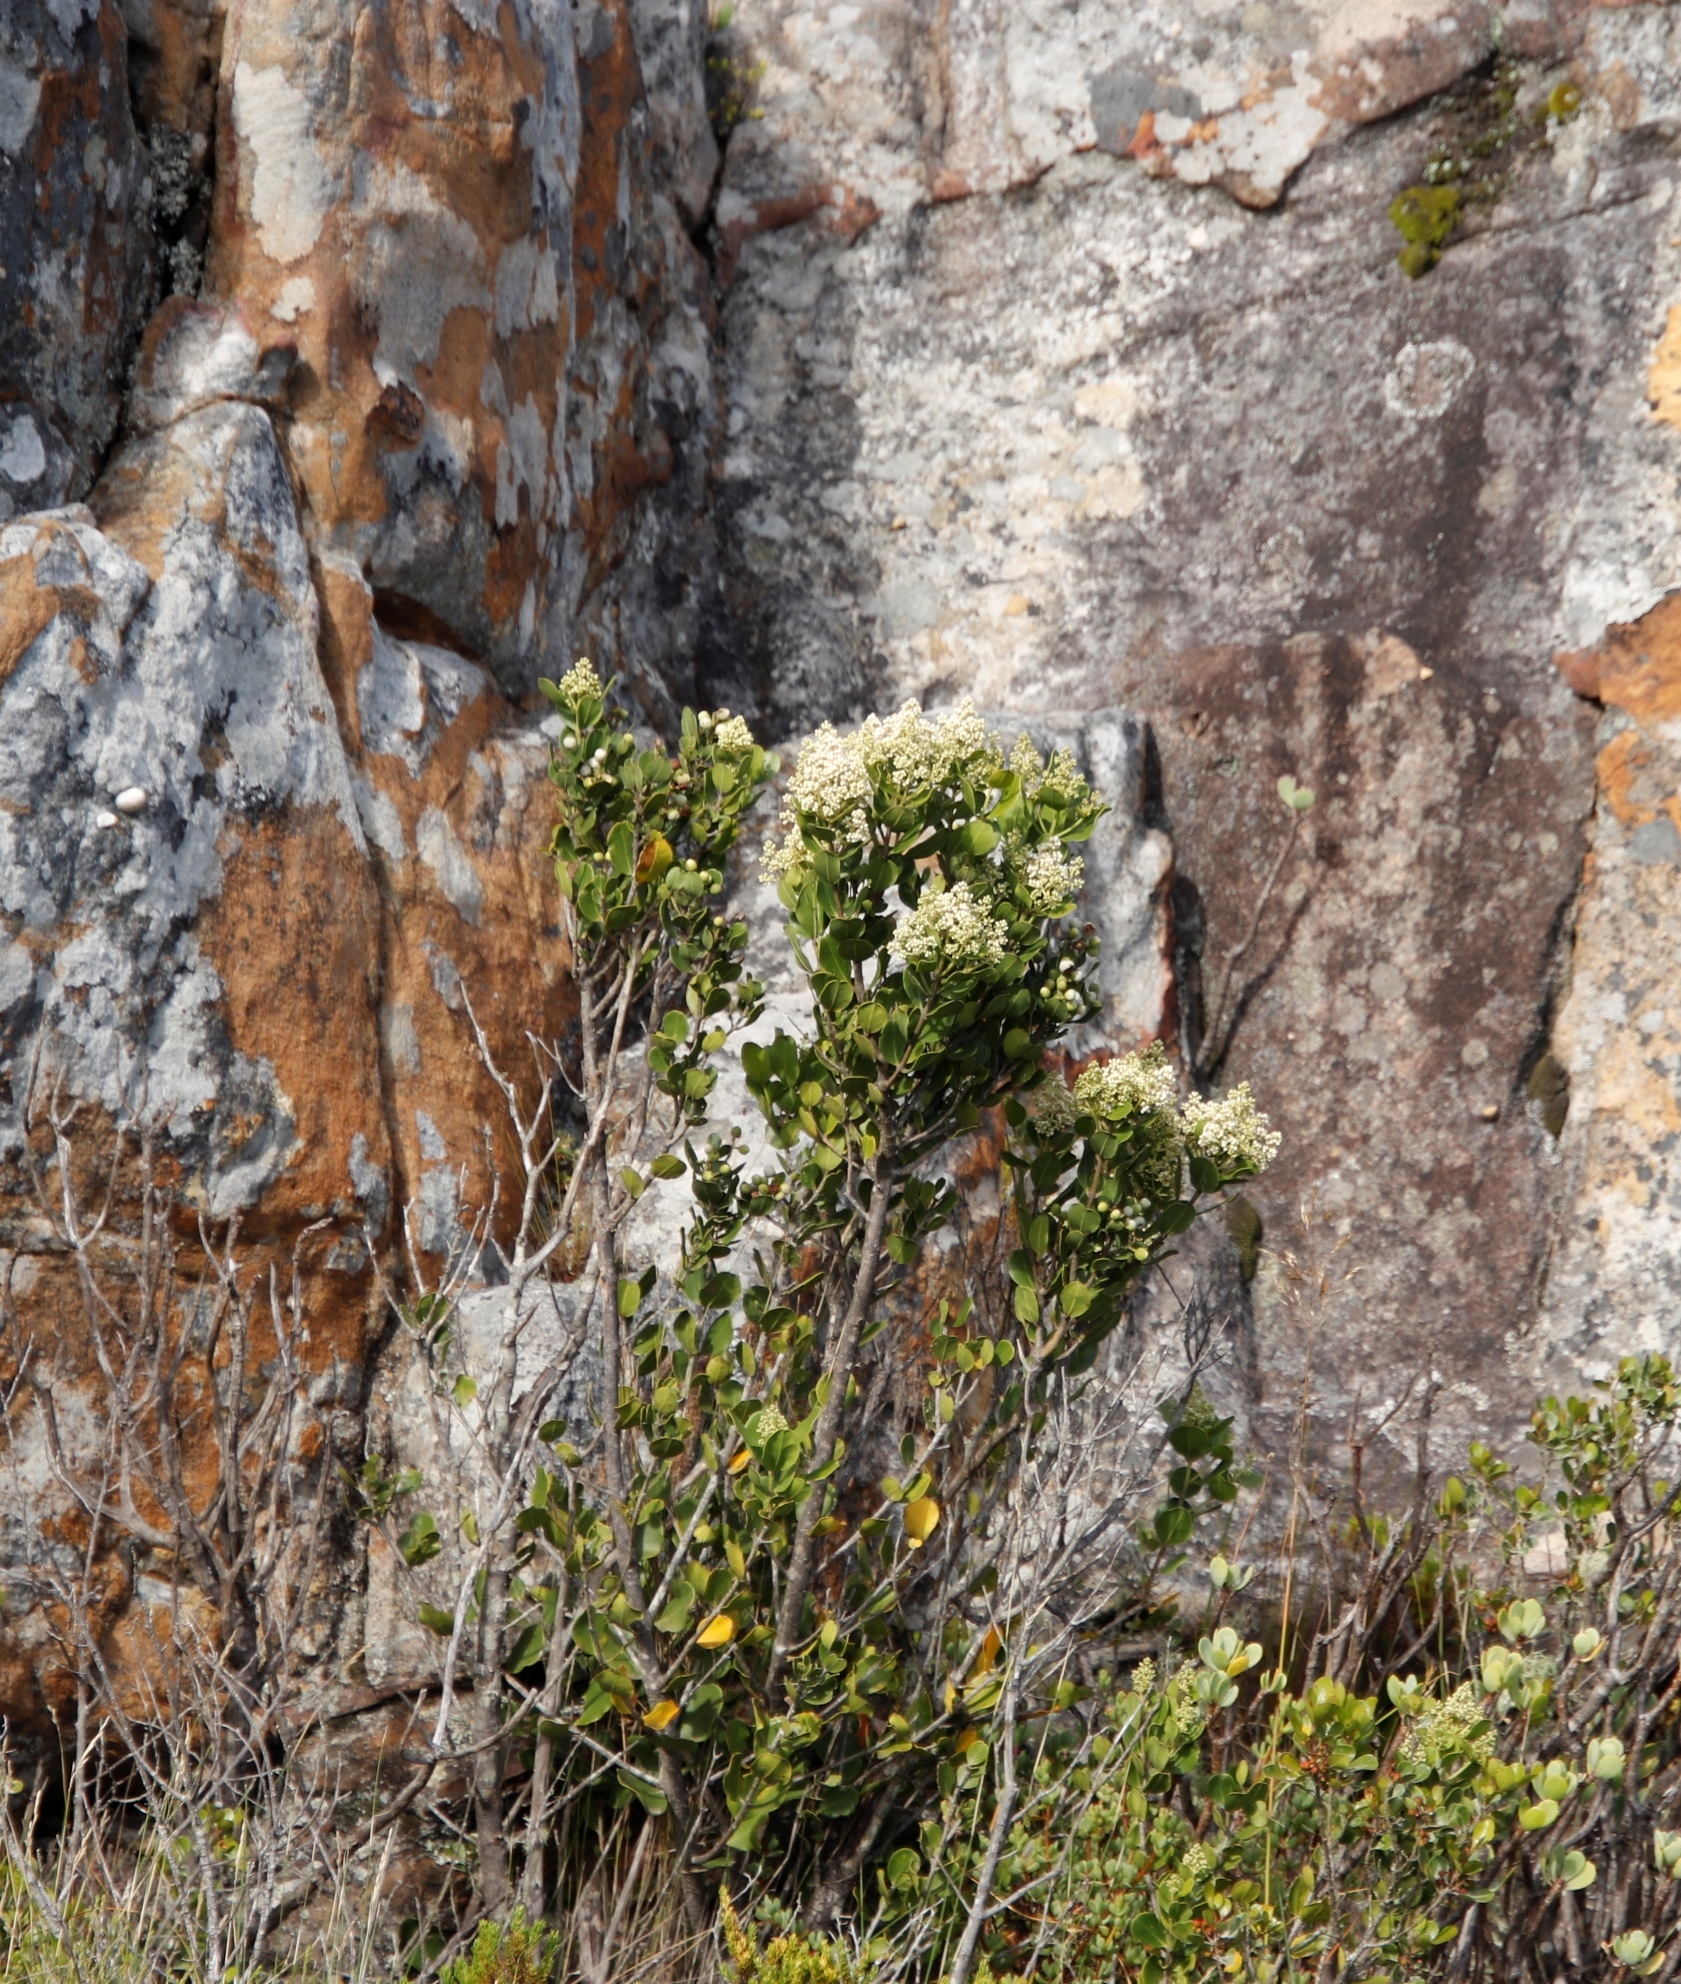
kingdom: Plantae
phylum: Tracheophyta
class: Magnoliopsida
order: Lamiales
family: Oleaceae
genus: Olea
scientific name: Olea capensis
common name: Black ironwood
